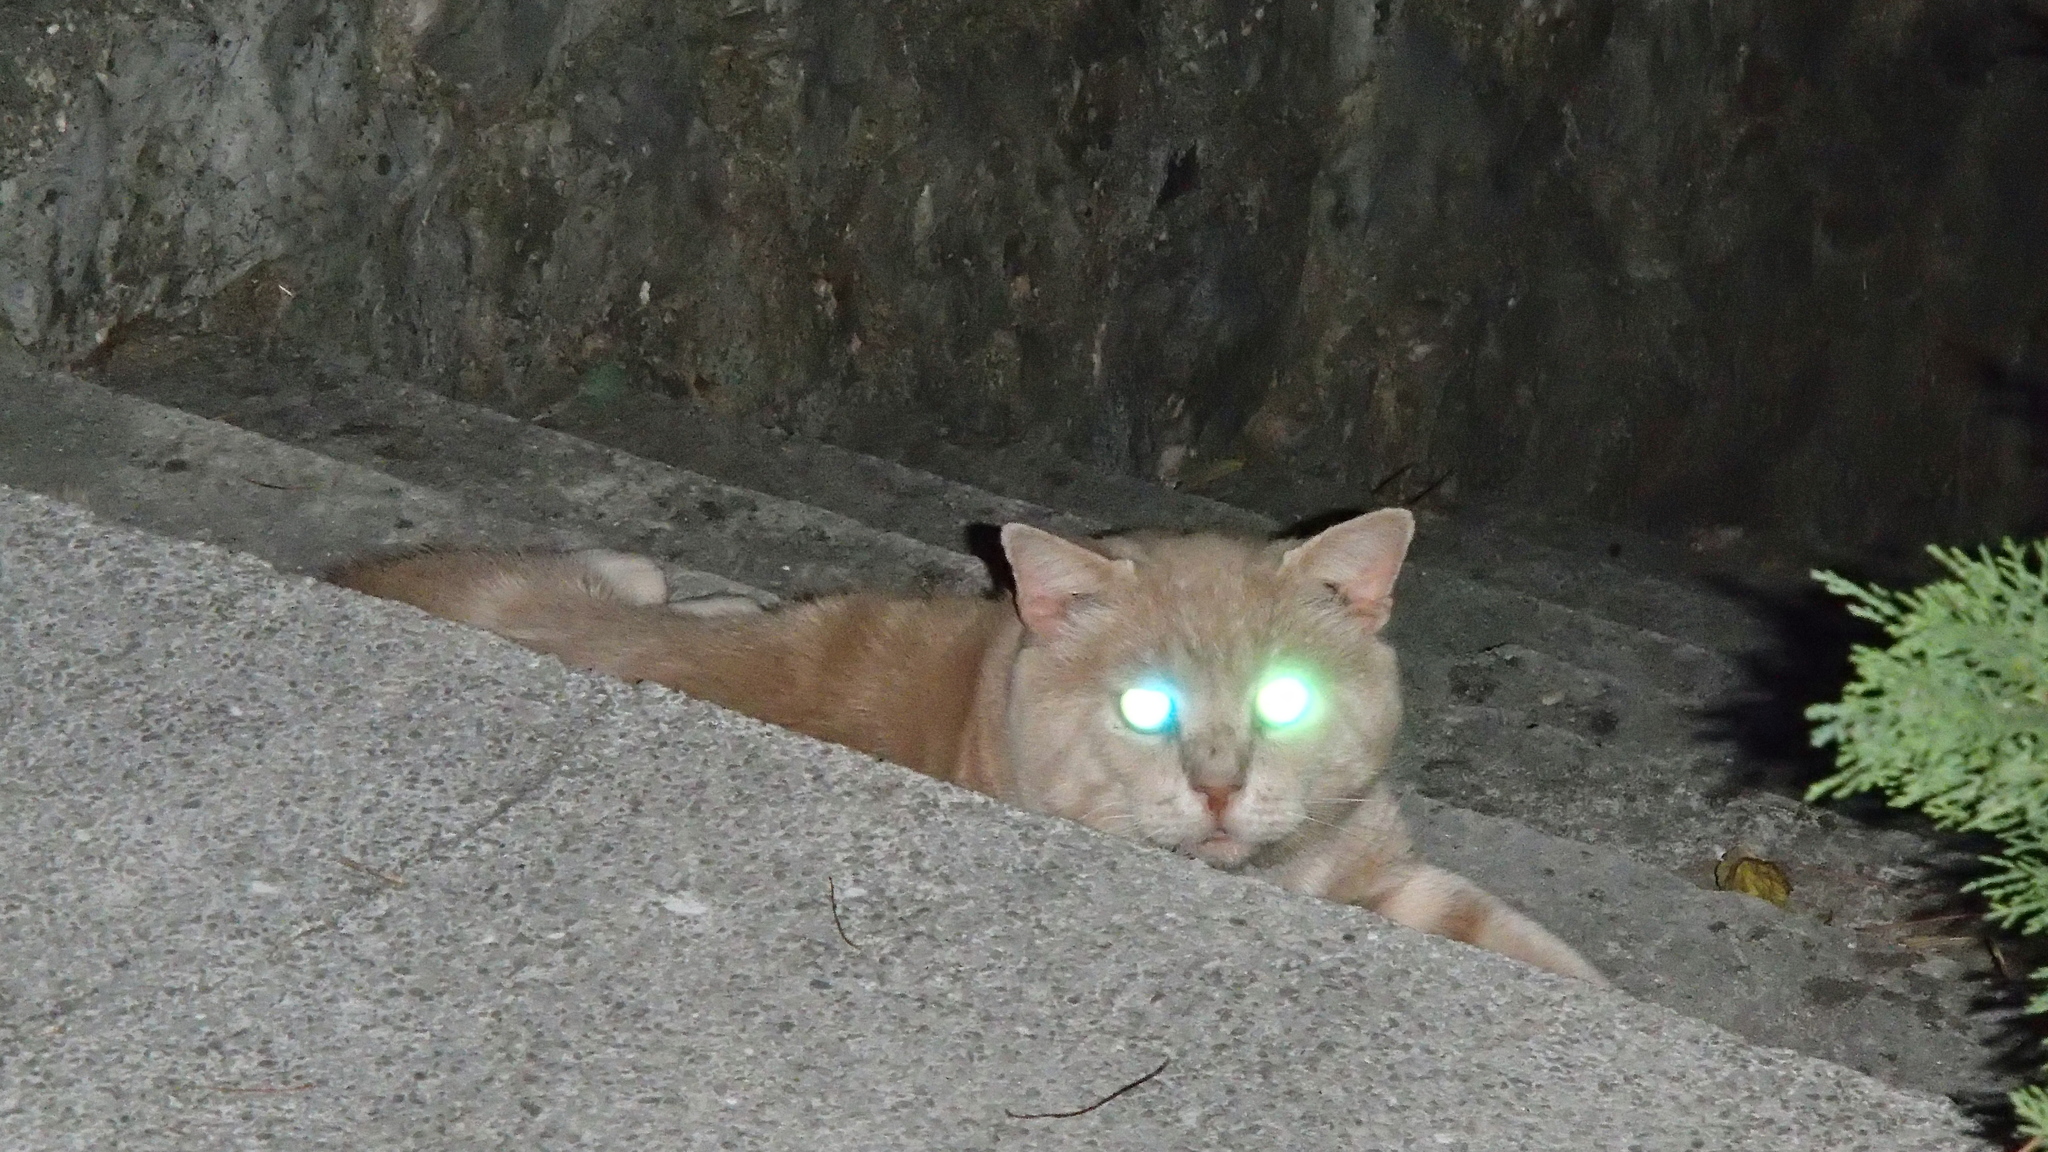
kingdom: Animalia
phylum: Chordata
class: Mammalia
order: Carnivora
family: Felidae
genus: Felis
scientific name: Felis catus
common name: Domestic cat
